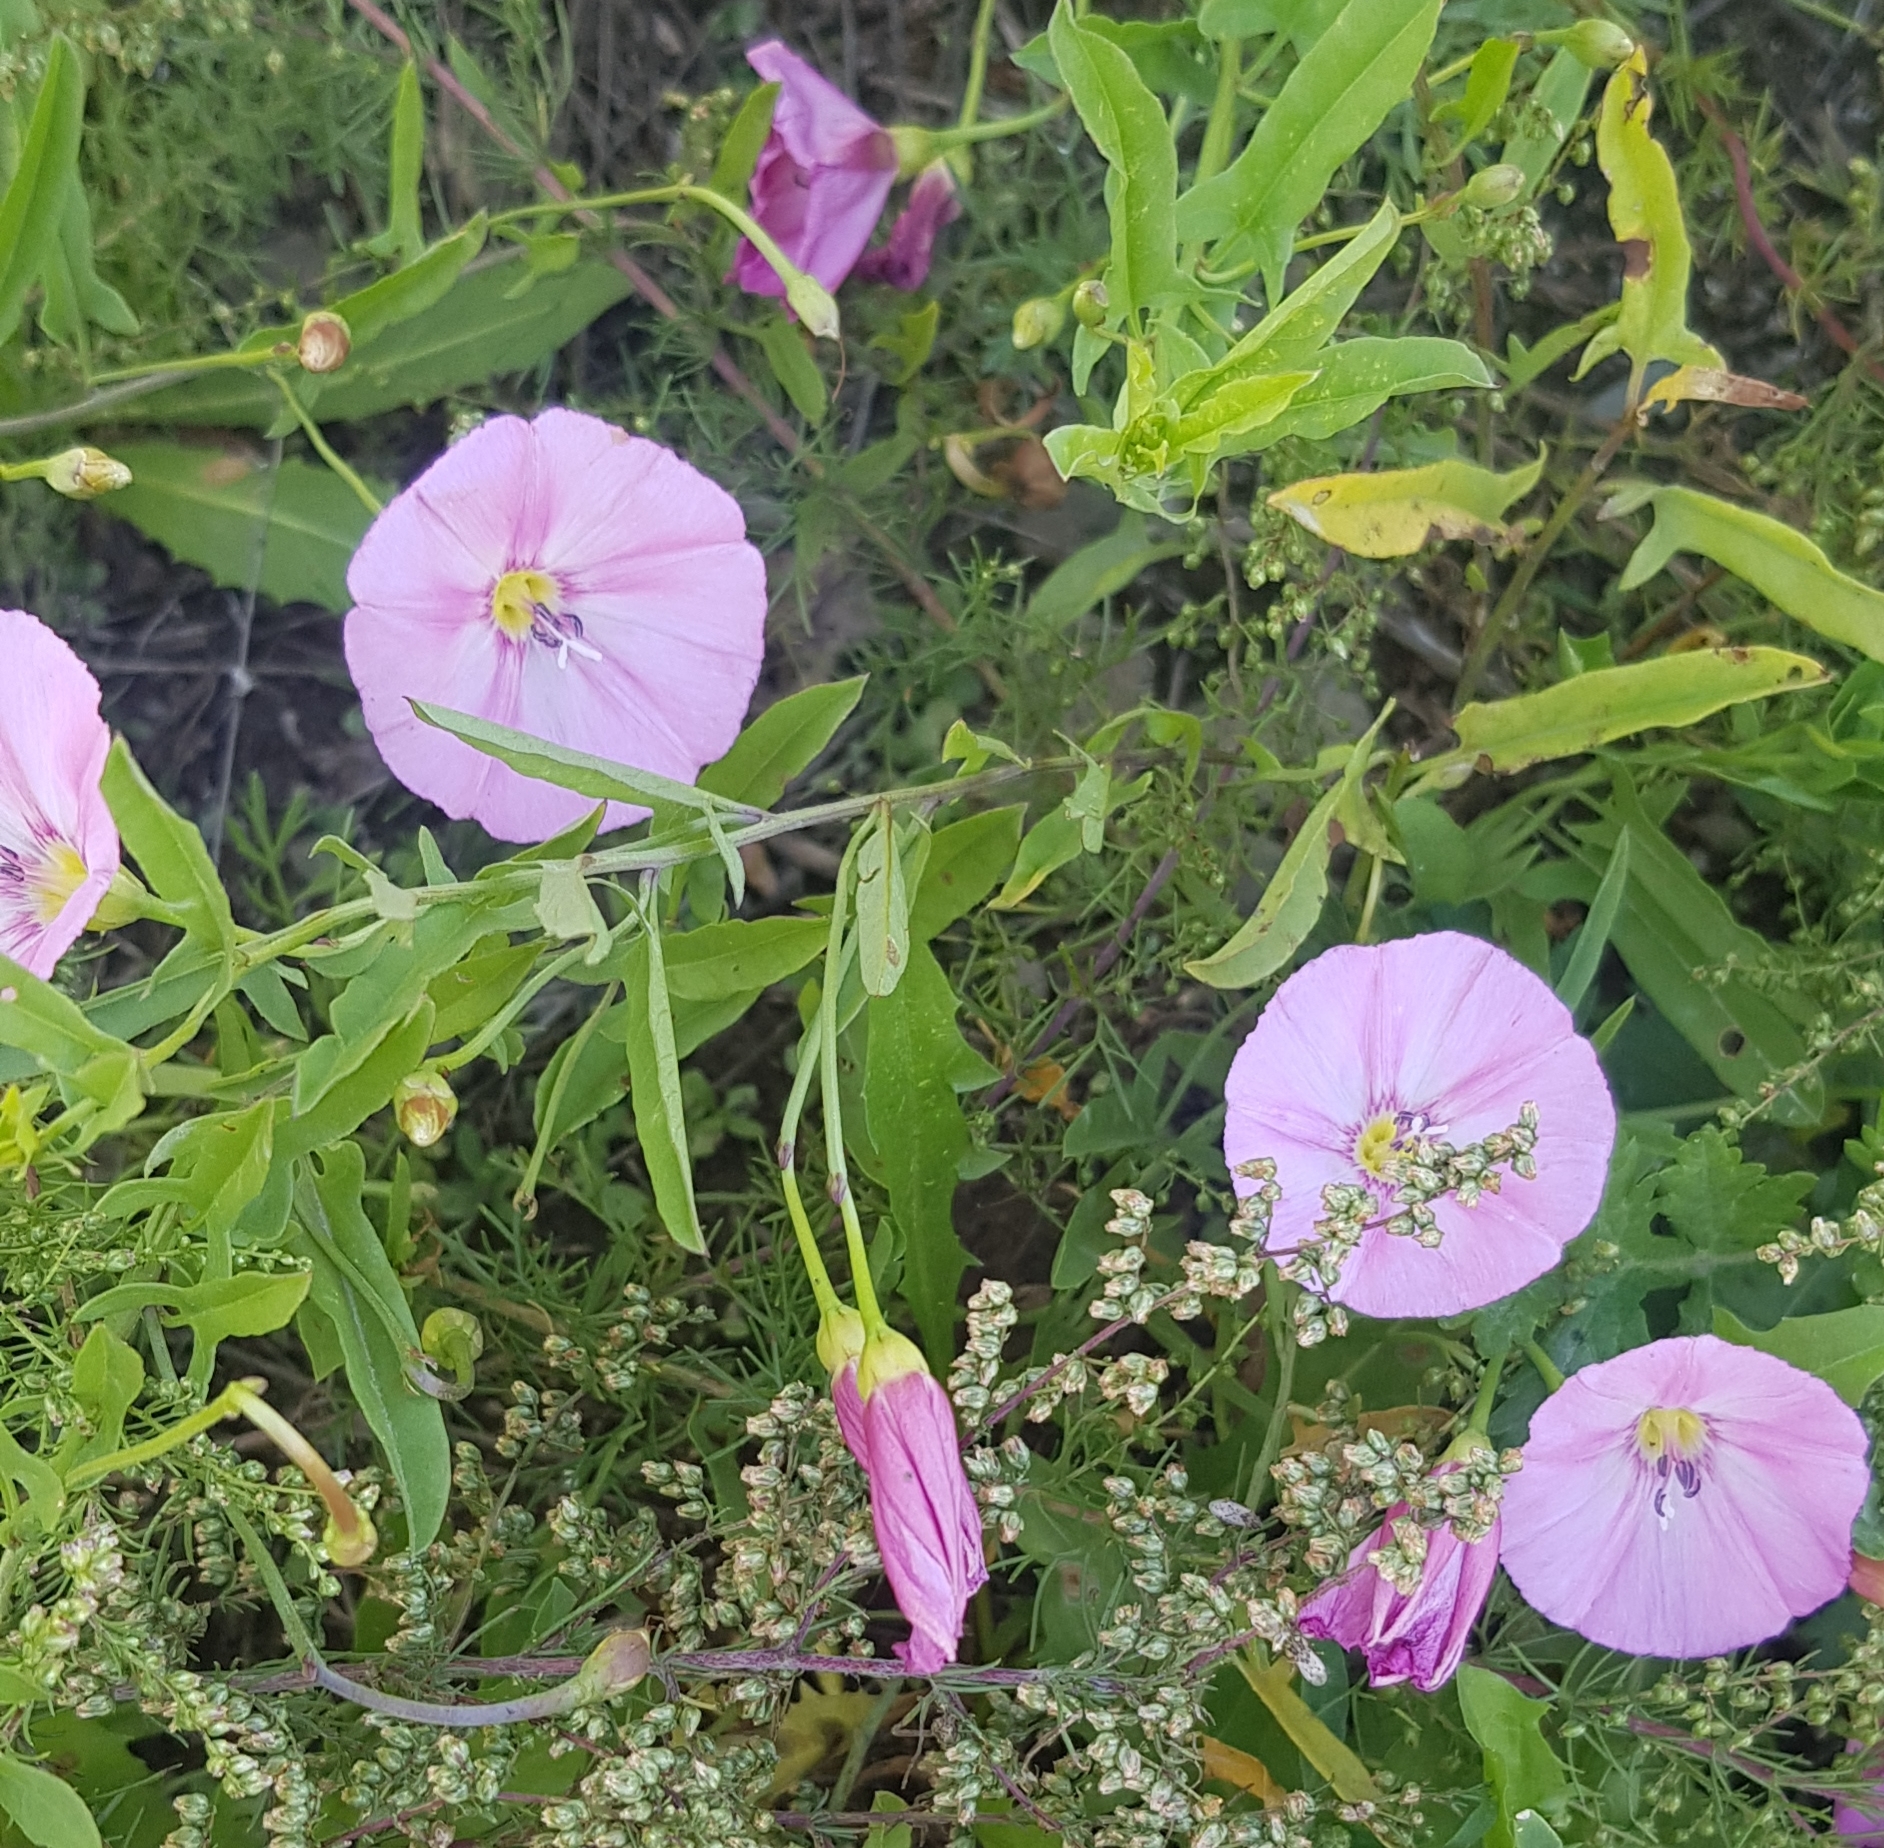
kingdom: Plantae
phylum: Tracheophyta
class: Magnoliopsida
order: Solanales
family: Convolvulaceae
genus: Convolvulus
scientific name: Convolvulus arvensis
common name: Field bindweed
